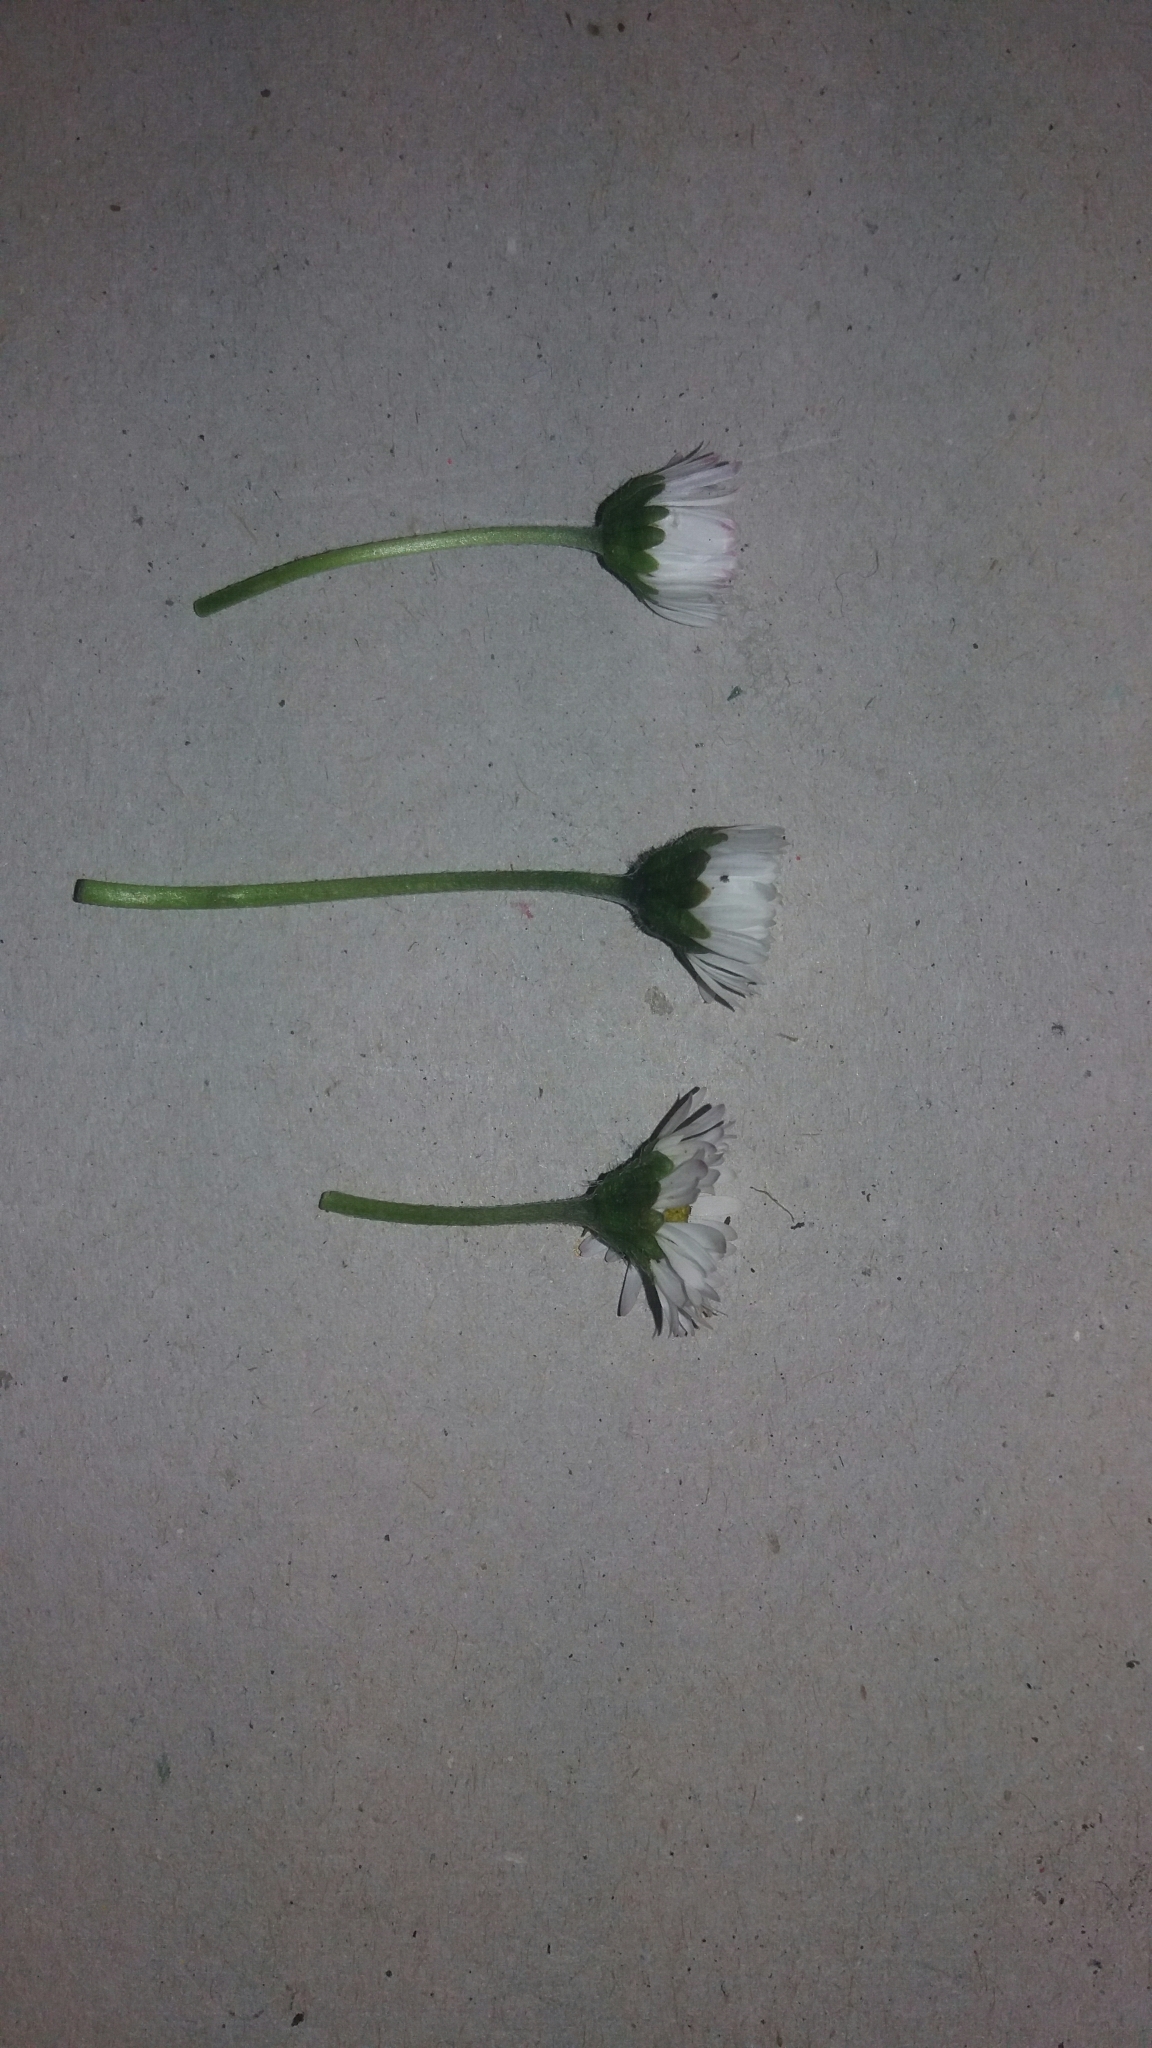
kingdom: Plantae
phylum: Tracheophyta
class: Magnoliopsida
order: Asterales
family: Asteraceae
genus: Bellis
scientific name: Bellis perennis
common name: Lawndaisy
